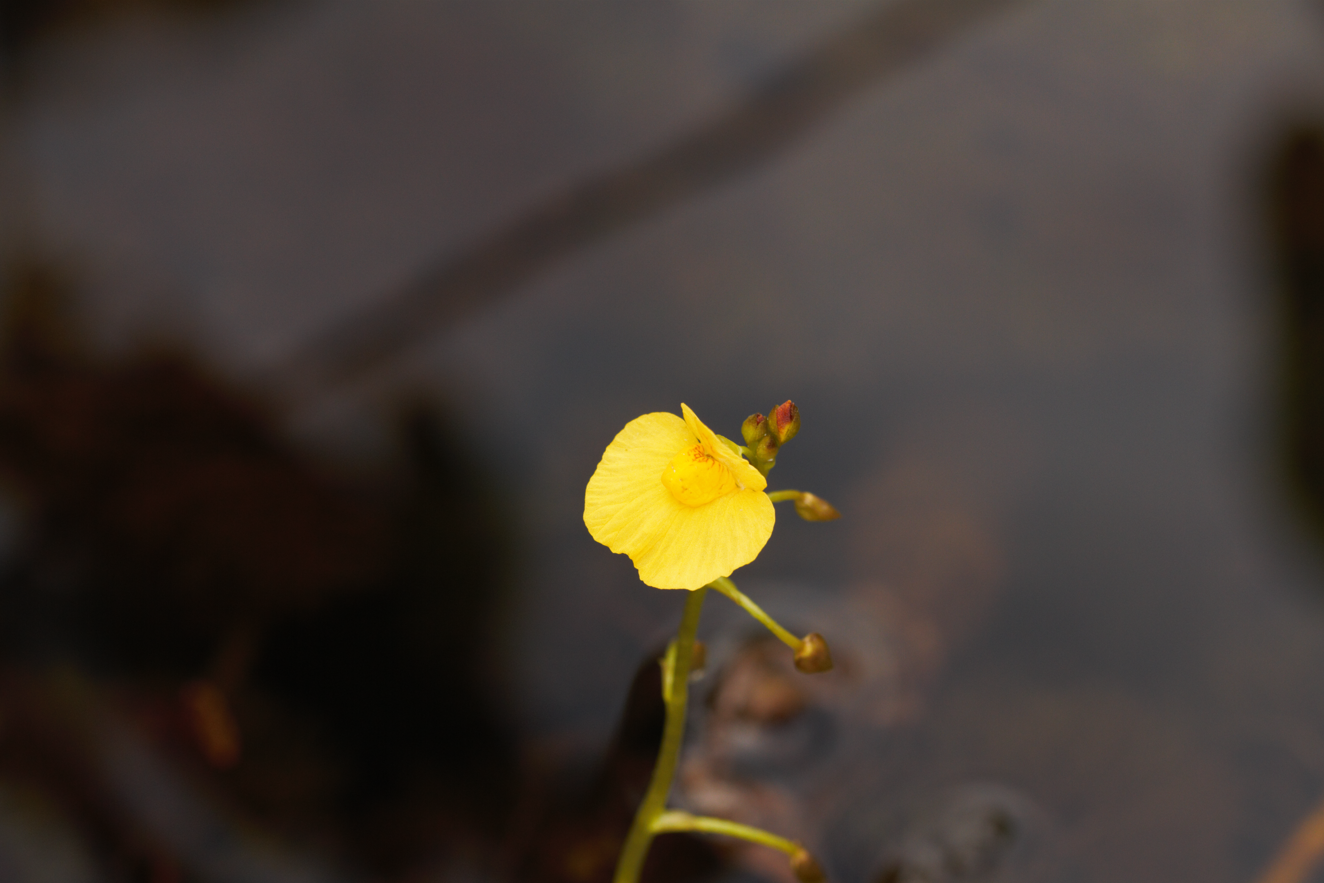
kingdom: Plantae
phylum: Tracheophyta
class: Magnoliopsida
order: Lamiales
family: Lentibulariaceae
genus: Utricularia
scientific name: Utricularia foliosa
